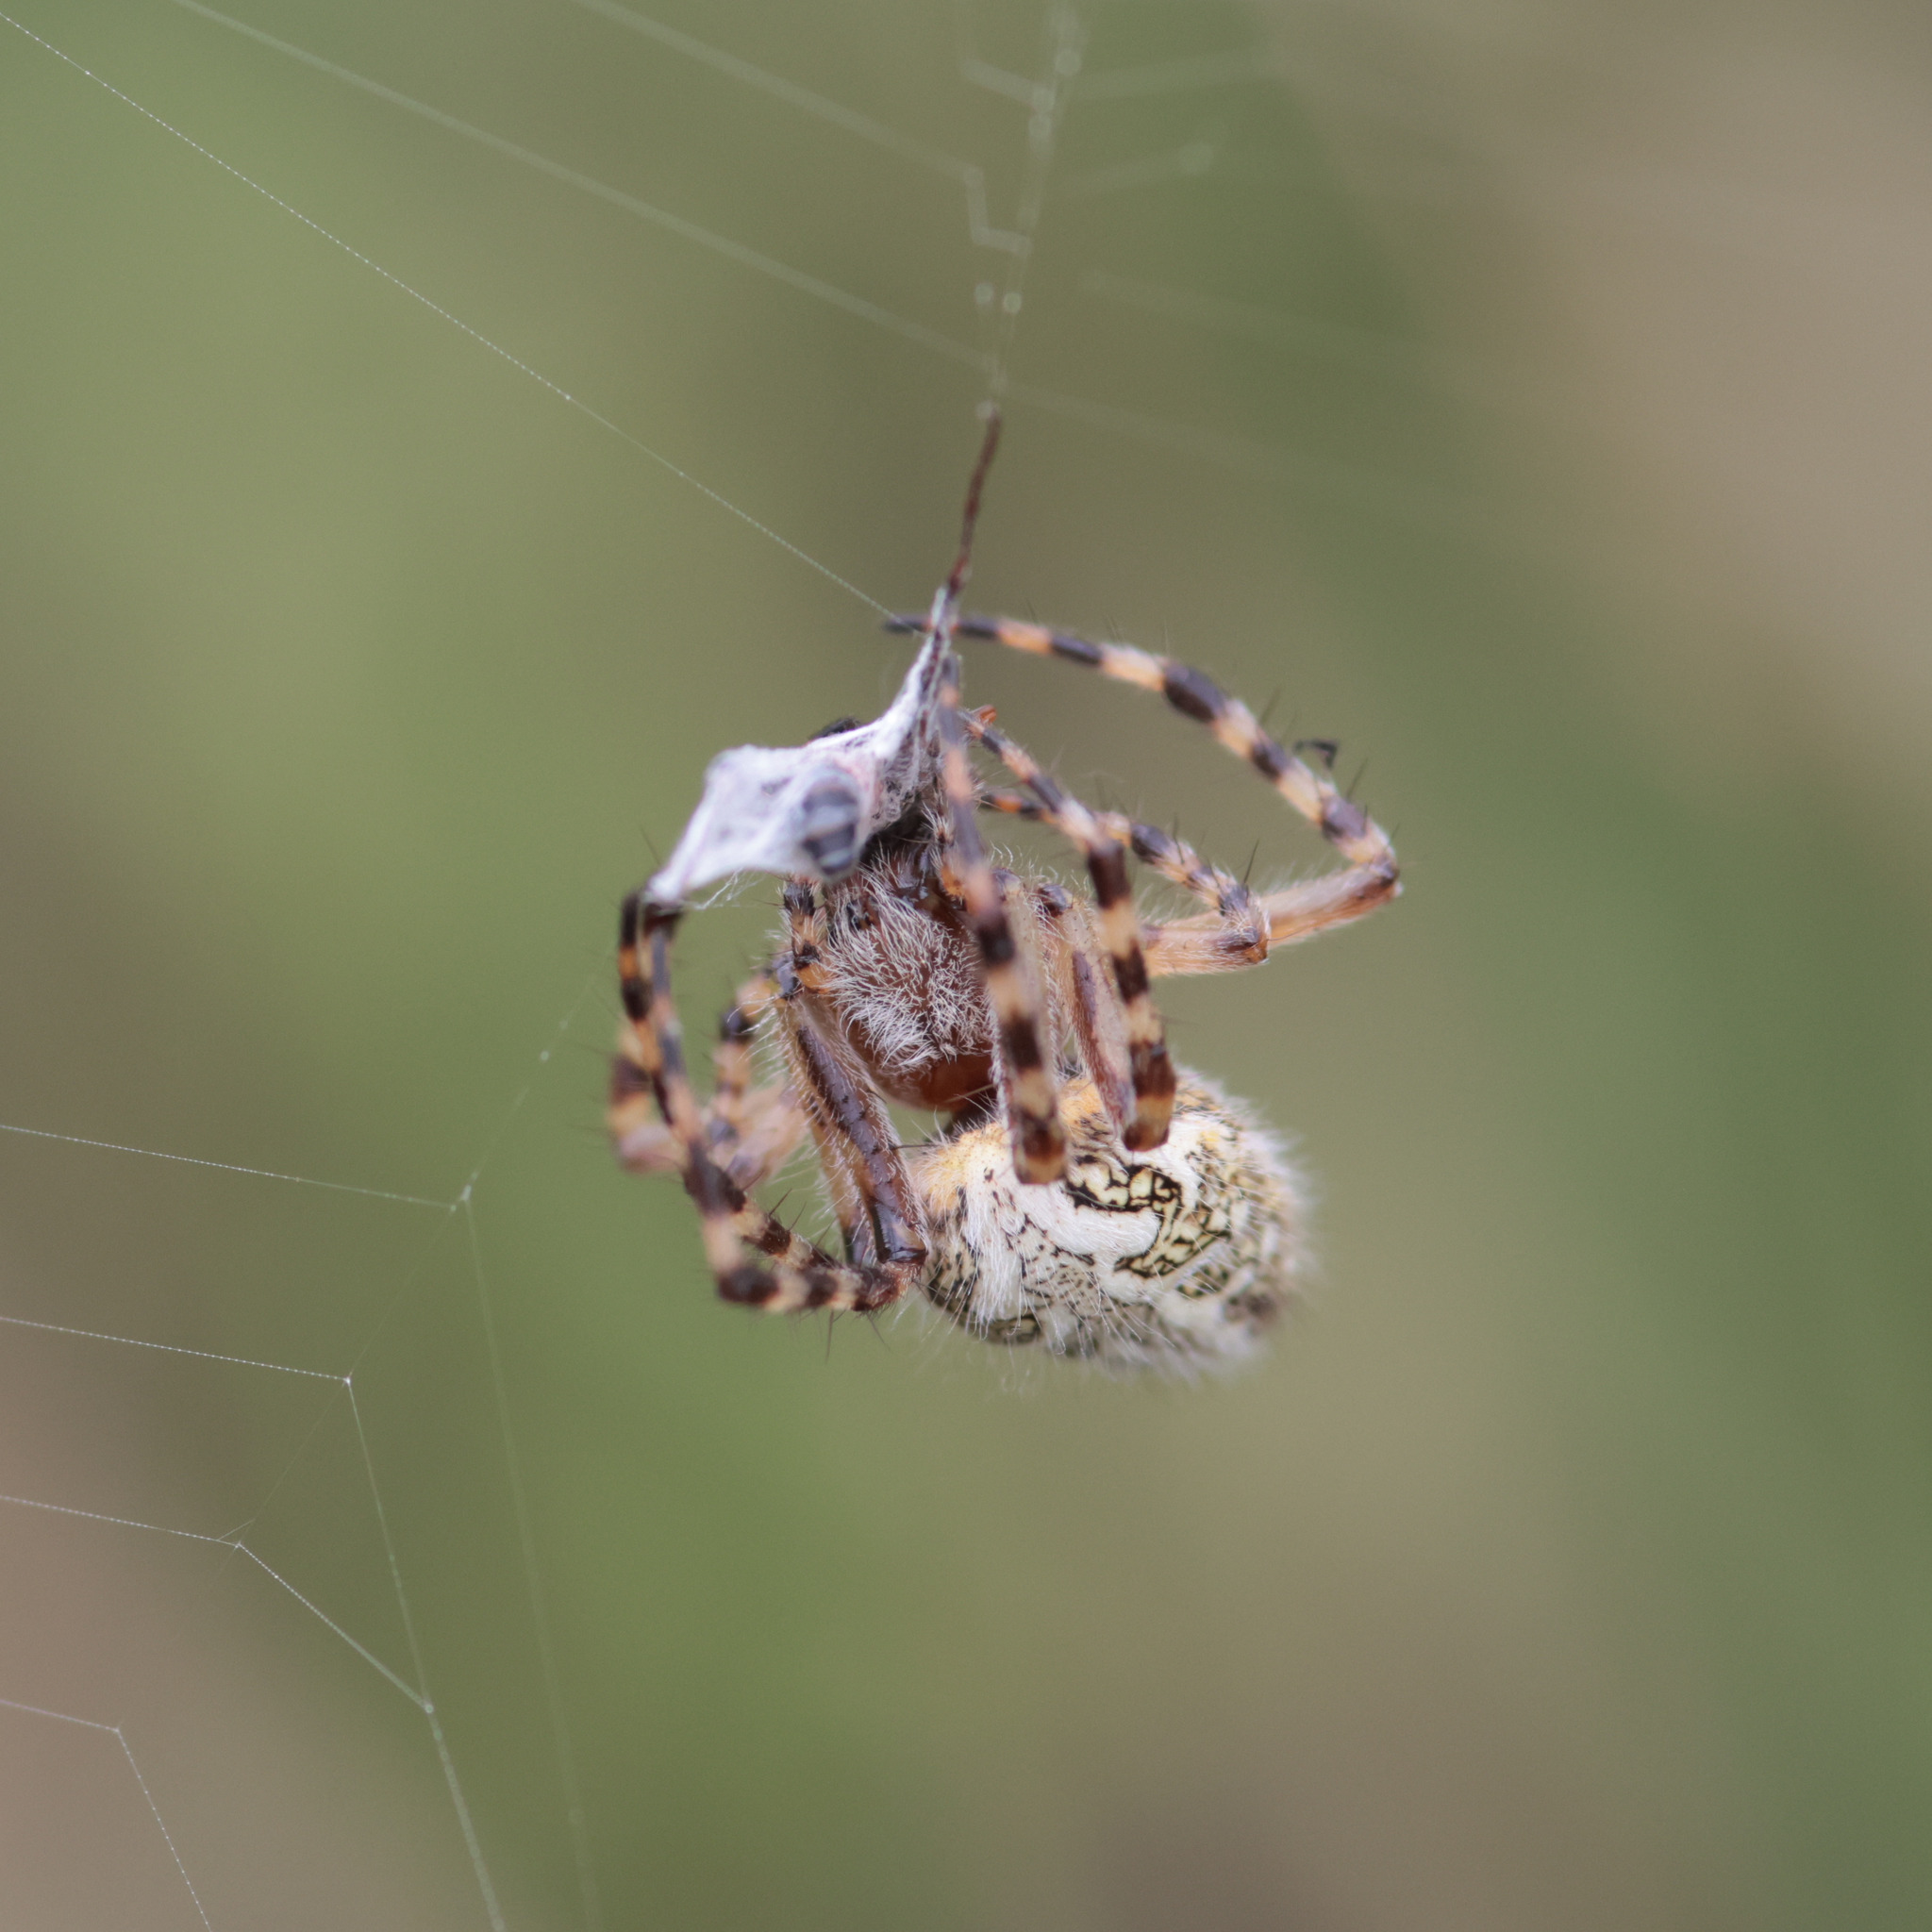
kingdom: Animalia
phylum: Arthropoda
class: Arachnida
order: Araneae
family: Araneidae
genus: Aculepeira
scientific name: Aculepeira ceropegia
